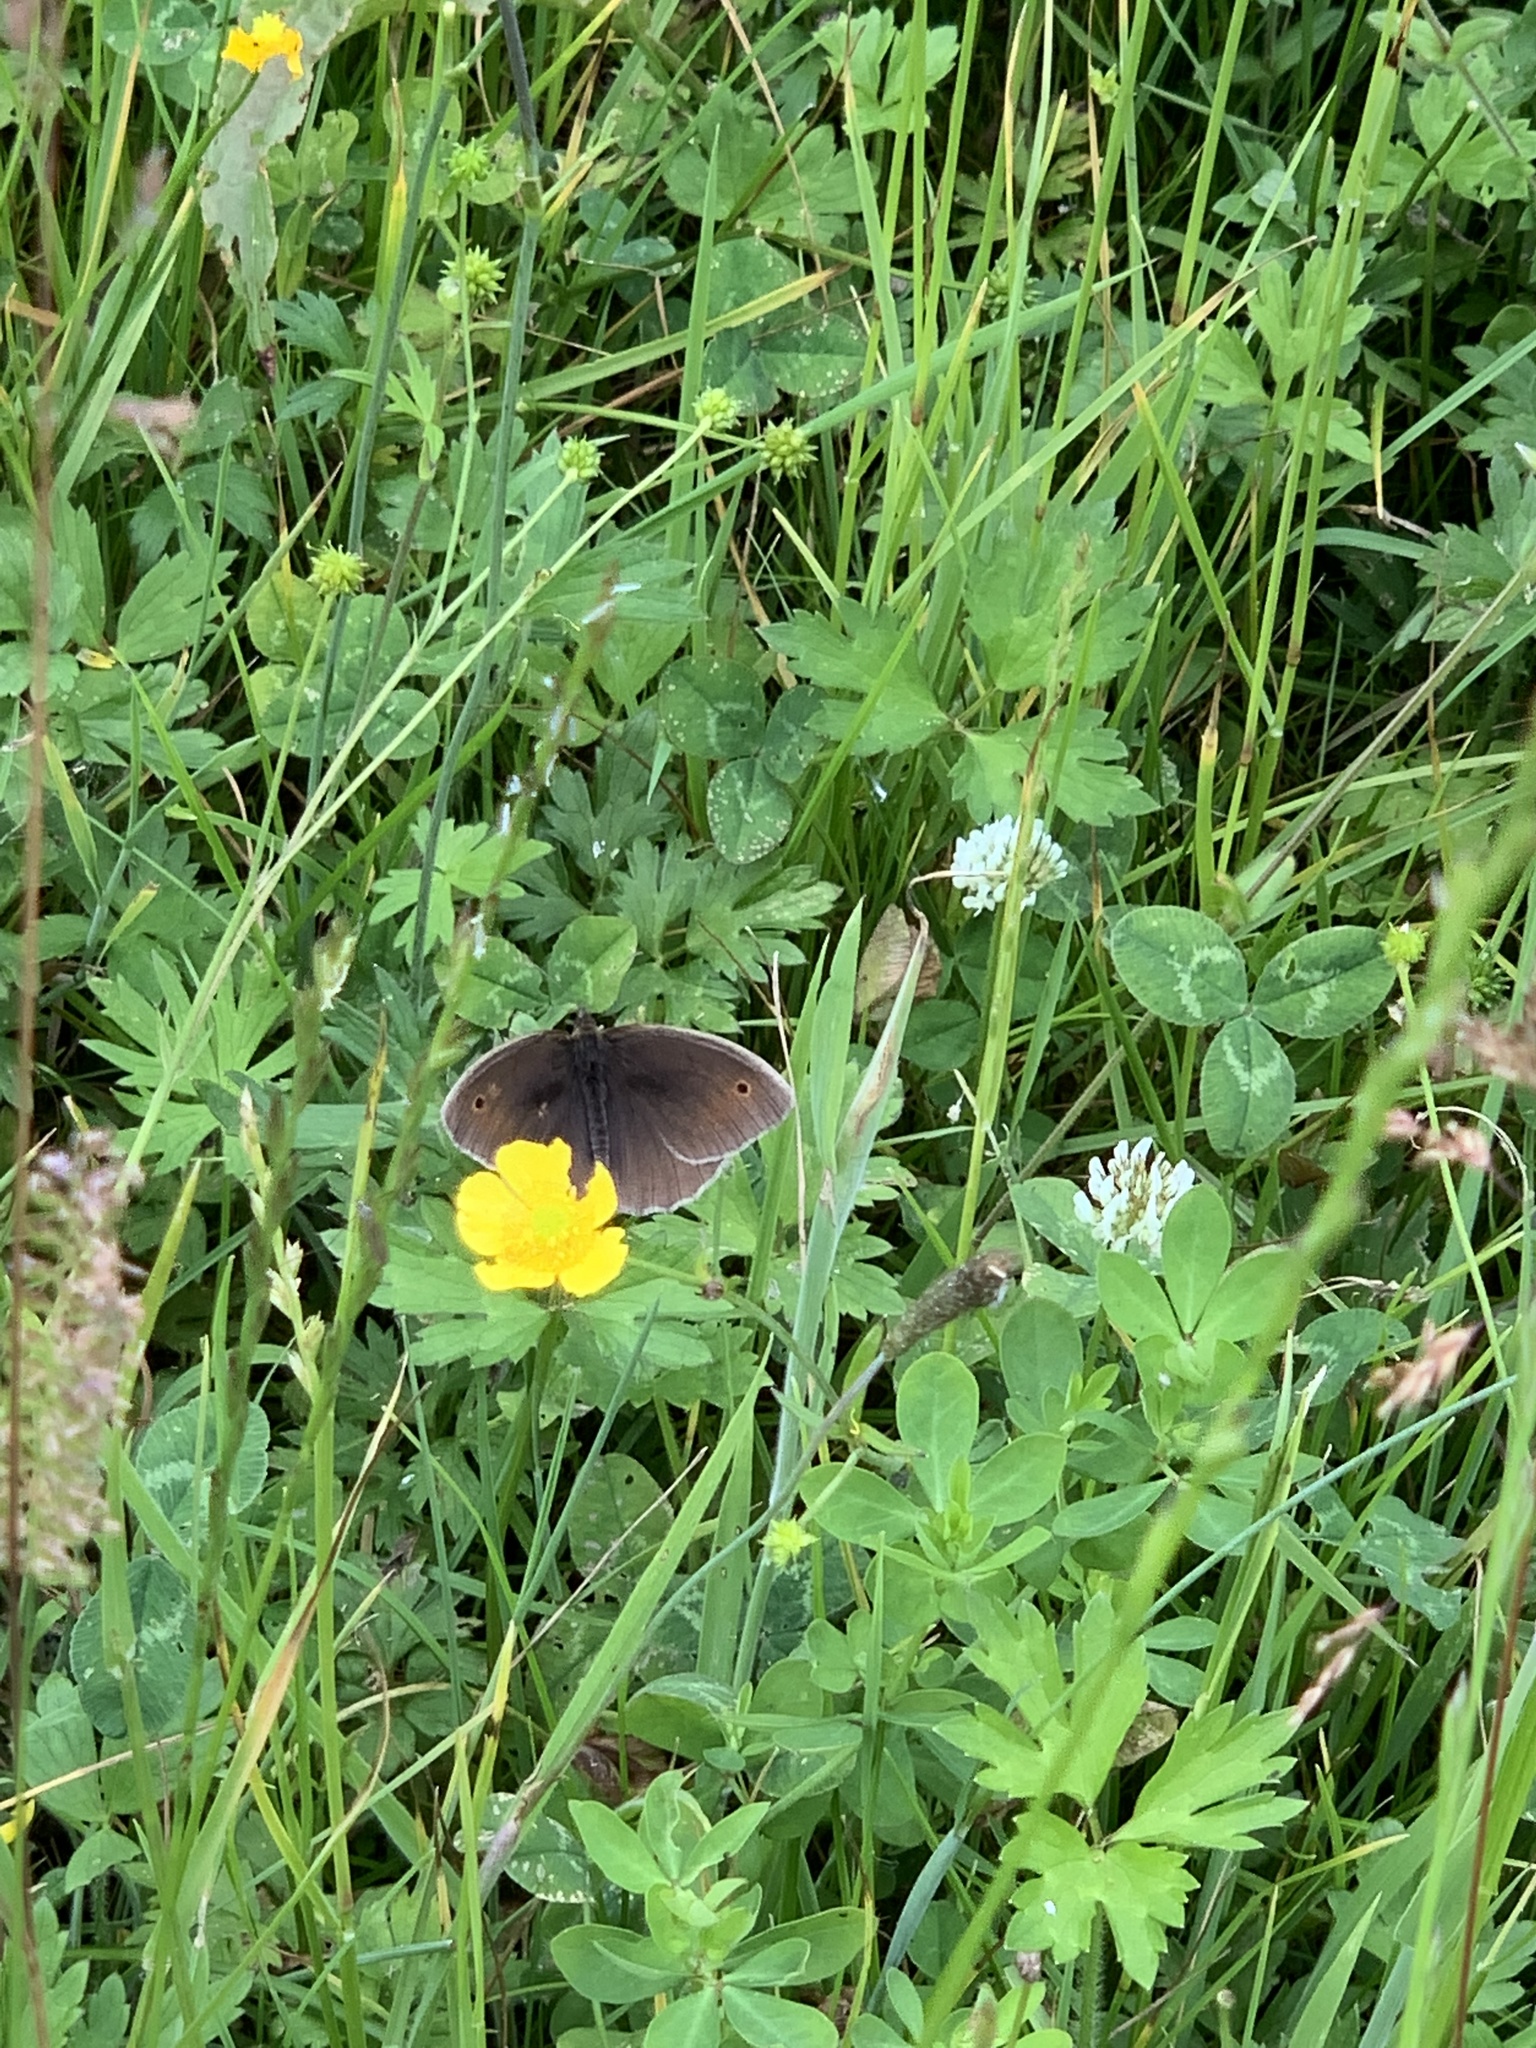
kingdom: Animalia
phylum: Arthropoda
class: Insecta
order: Lepidoptera
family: Nymphalidae
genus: Maniola
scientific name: Maniola jurtina
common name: Meadow brown
